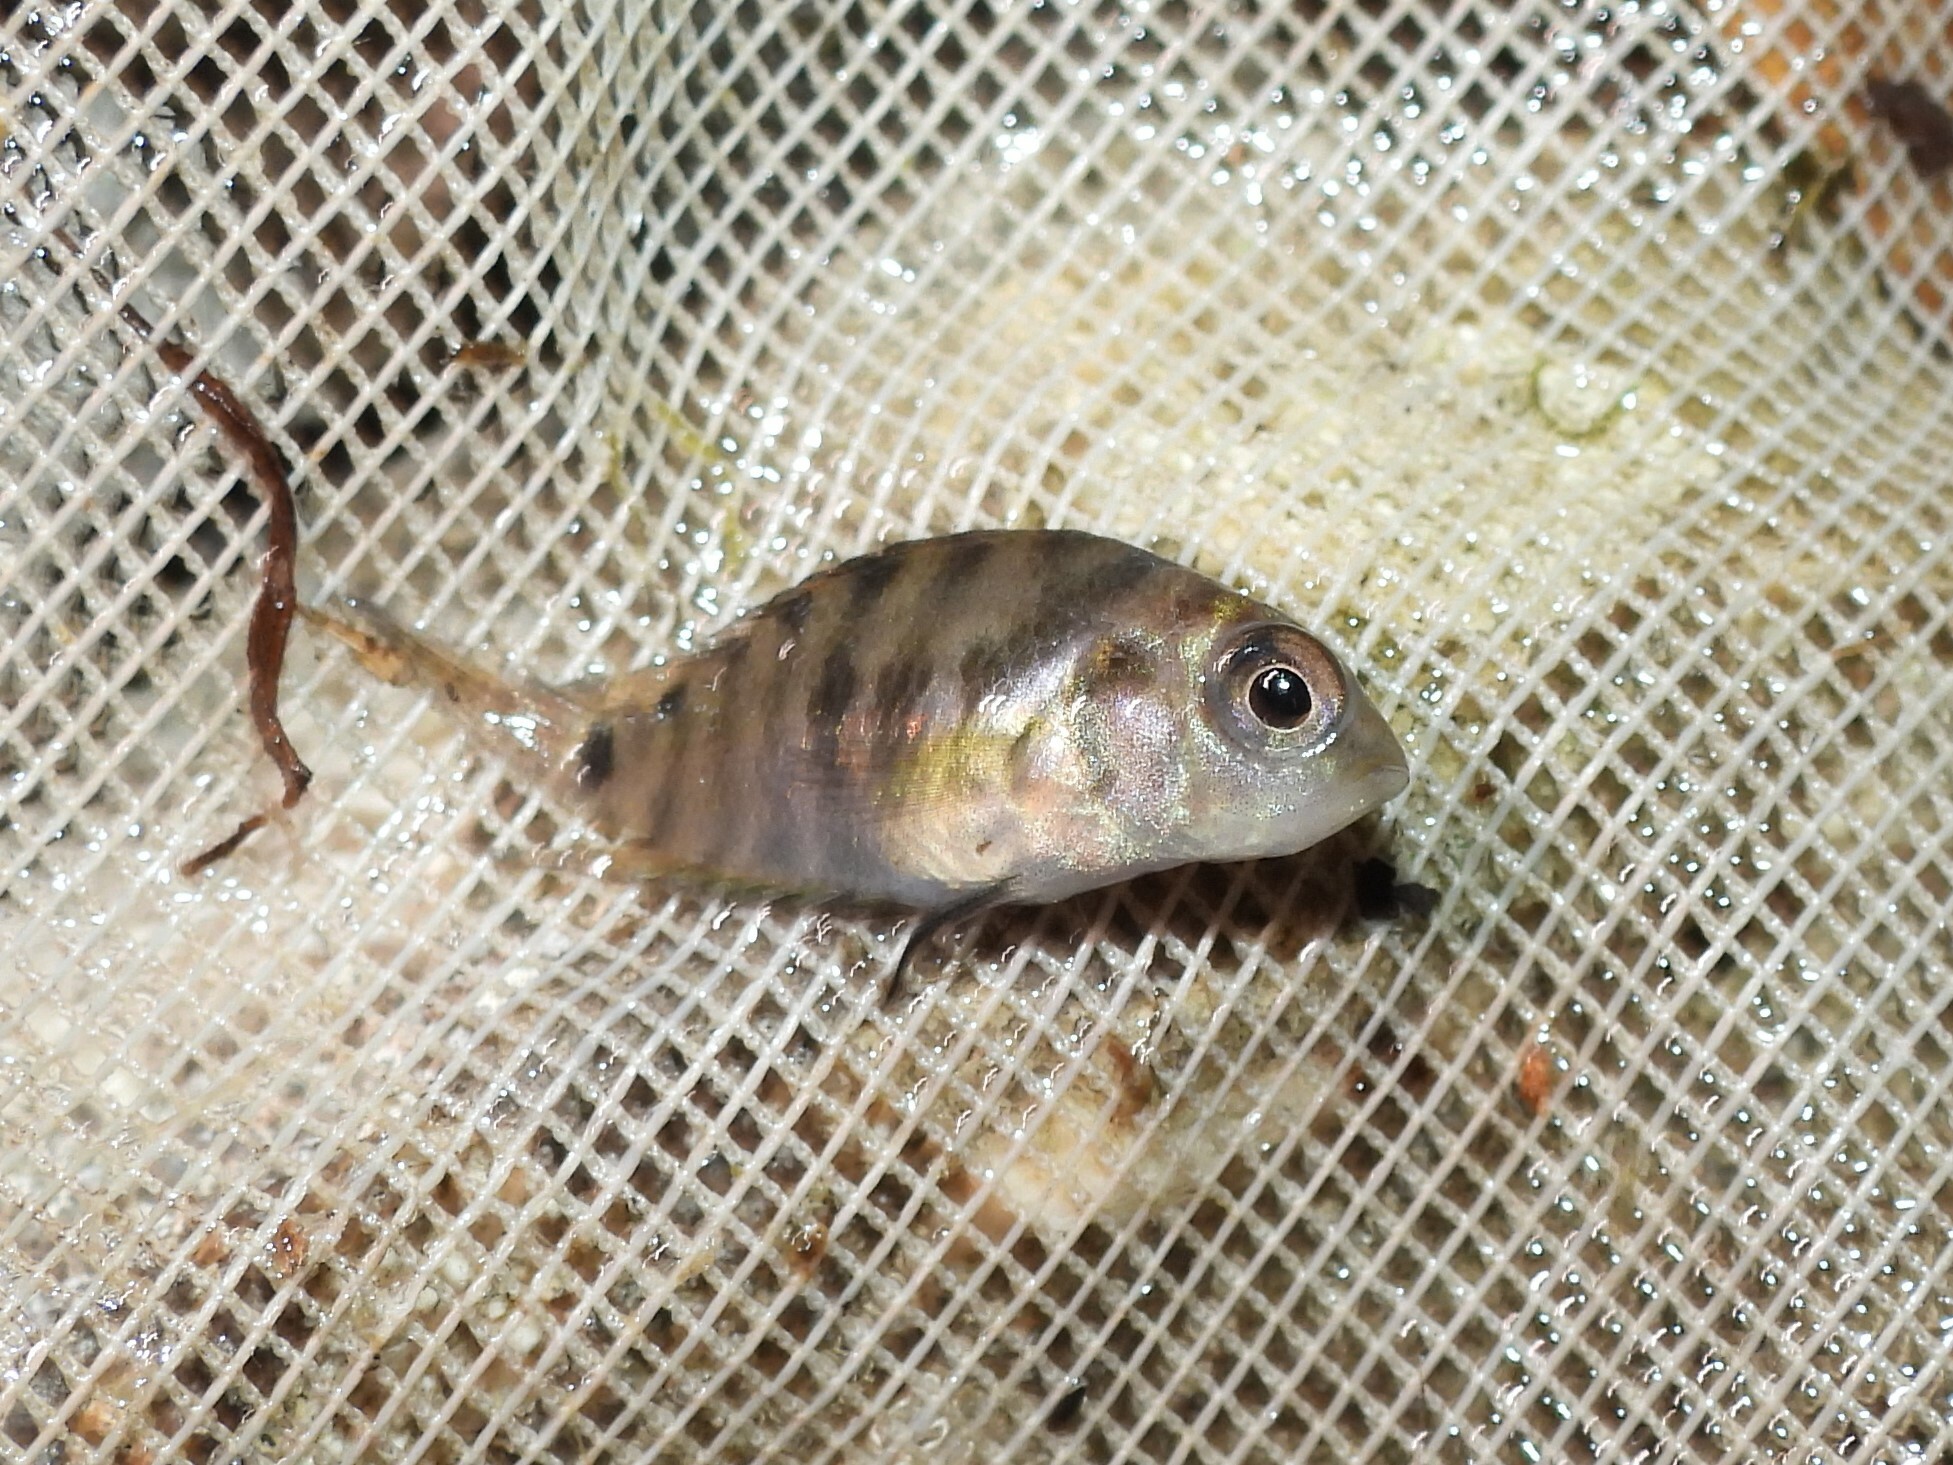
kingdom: Animalia
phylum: Chordata
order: Perciformes
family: Cichlidae
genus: Amatitlania
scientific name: Amatitlania nigrofasciata
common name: Convict cichlid
